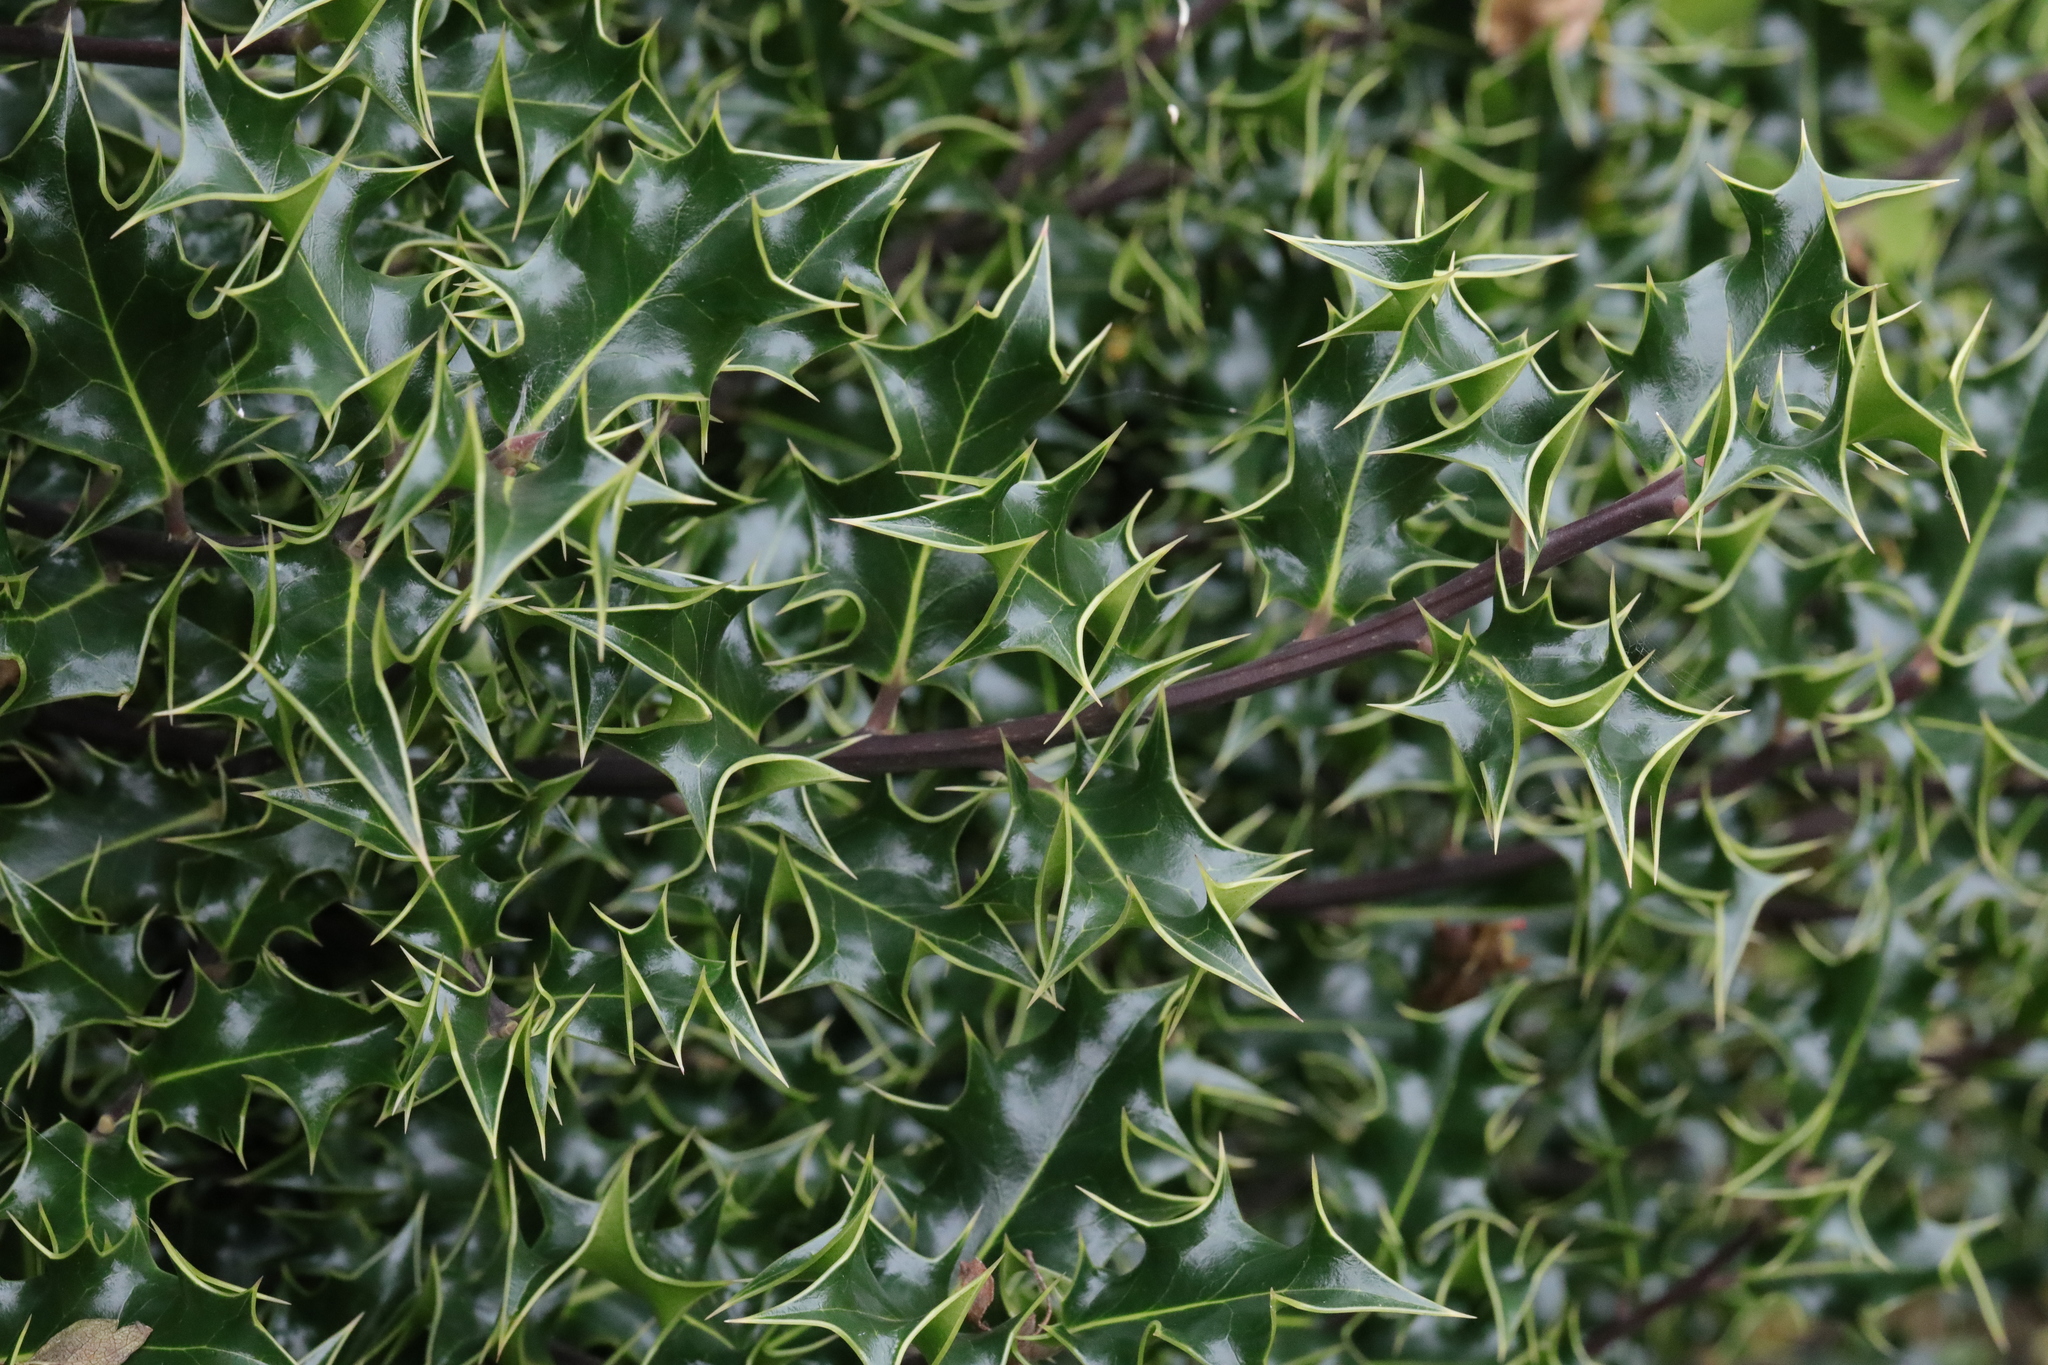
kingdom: Plantae
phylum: Tracheophyta
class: Magnoliopsida
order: Aquifoliales
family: Aquifoliaceae
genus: Ilex
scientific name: Ilex aquifolium
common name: English holly
